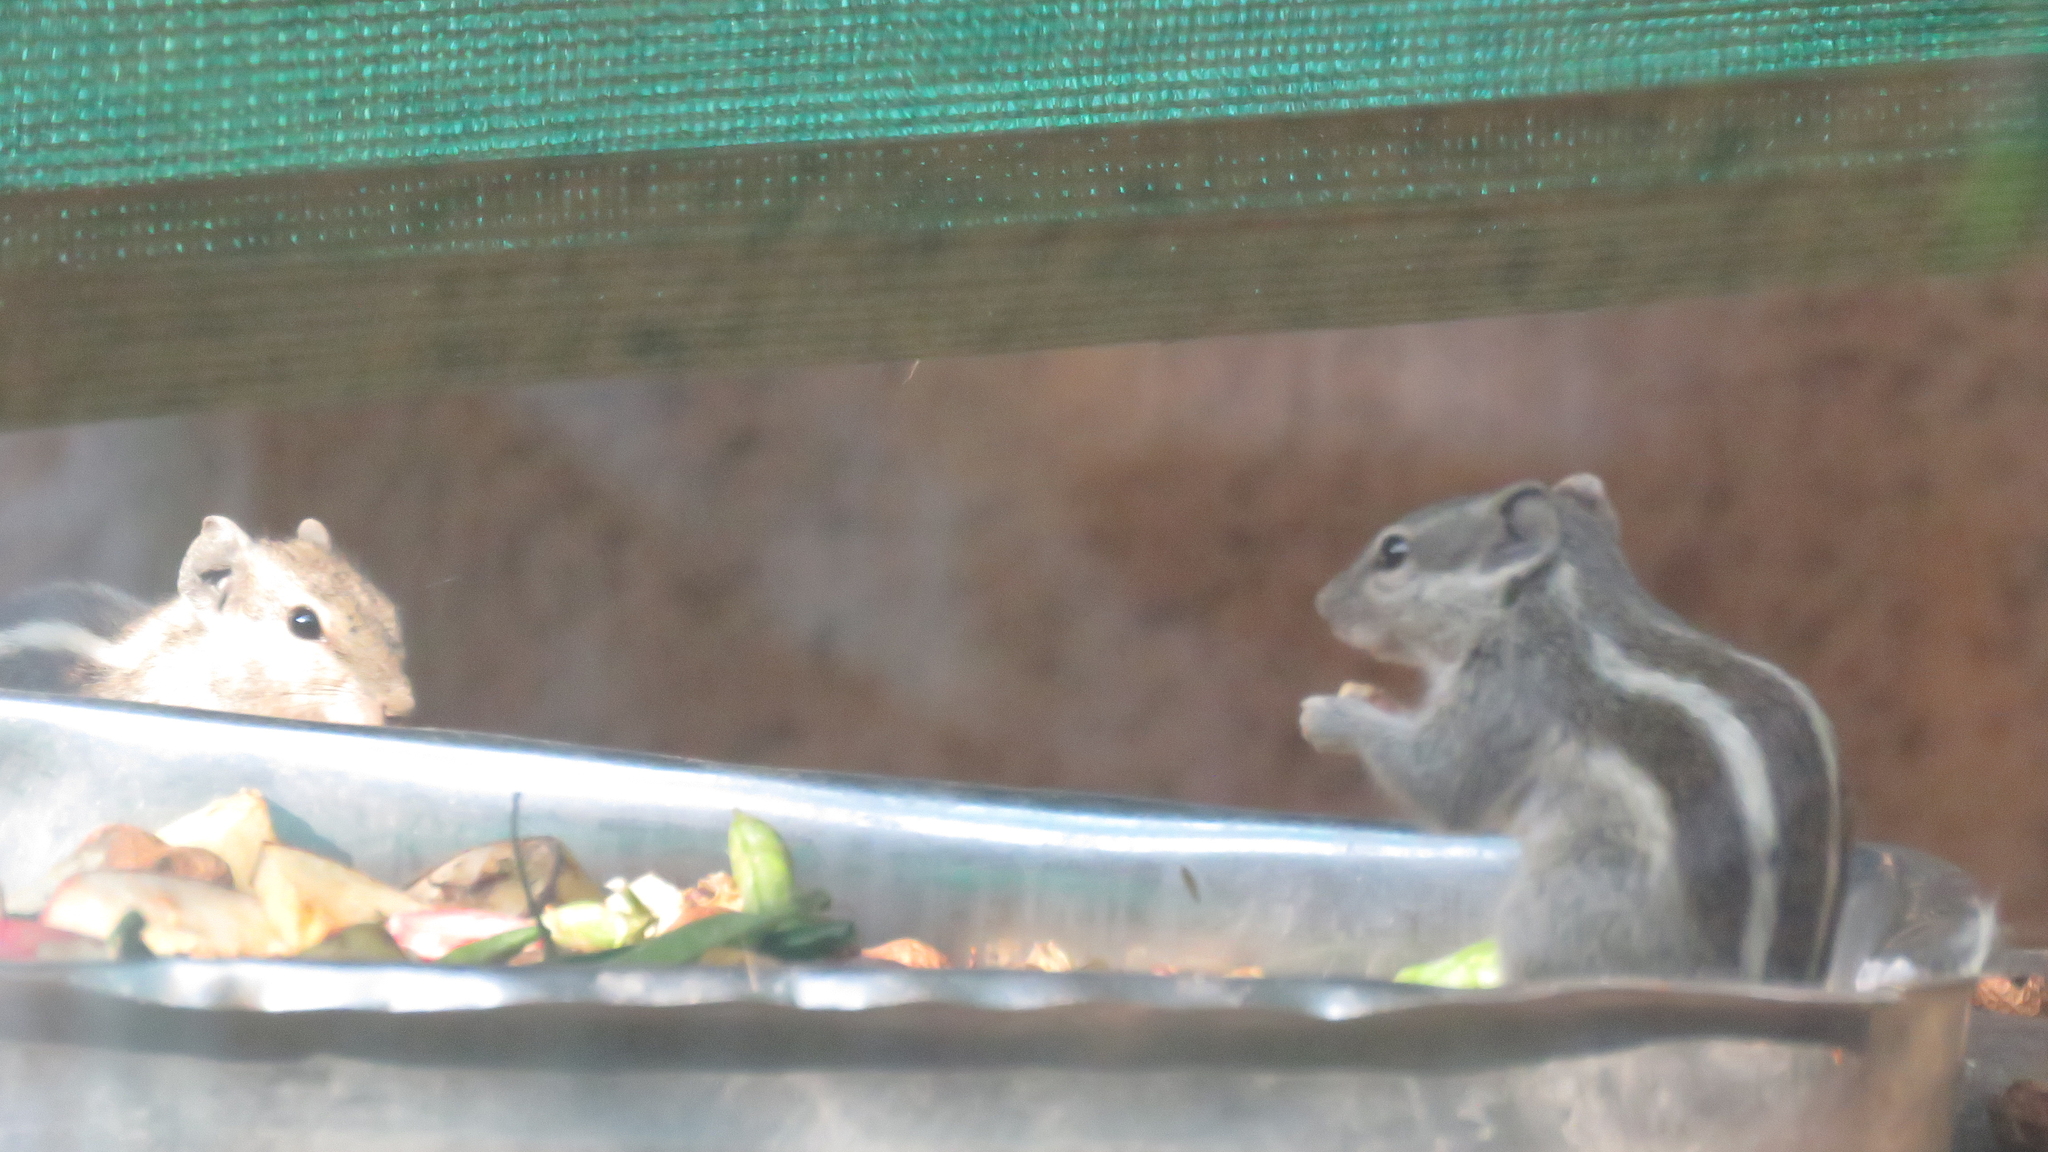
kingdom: Animalia
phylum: Chordata
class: Mammalia
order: Rodentia
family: Sciuridae
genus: Funambulus
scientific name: Funambulus pennantii
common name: Northern palm squirrel
